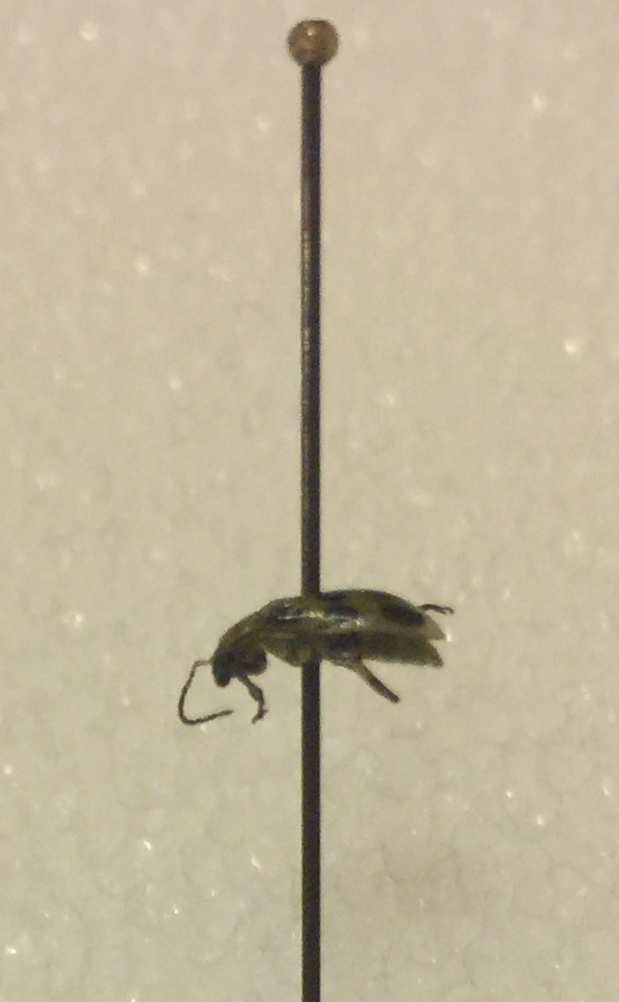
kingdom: Animalia
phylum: Arthropoda
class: Insecta
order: Coleoptera
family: Chrysomelidae
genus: Diabrotica
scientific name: Diabrotica undecimpunctata
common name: Spotted cucumber beetle
